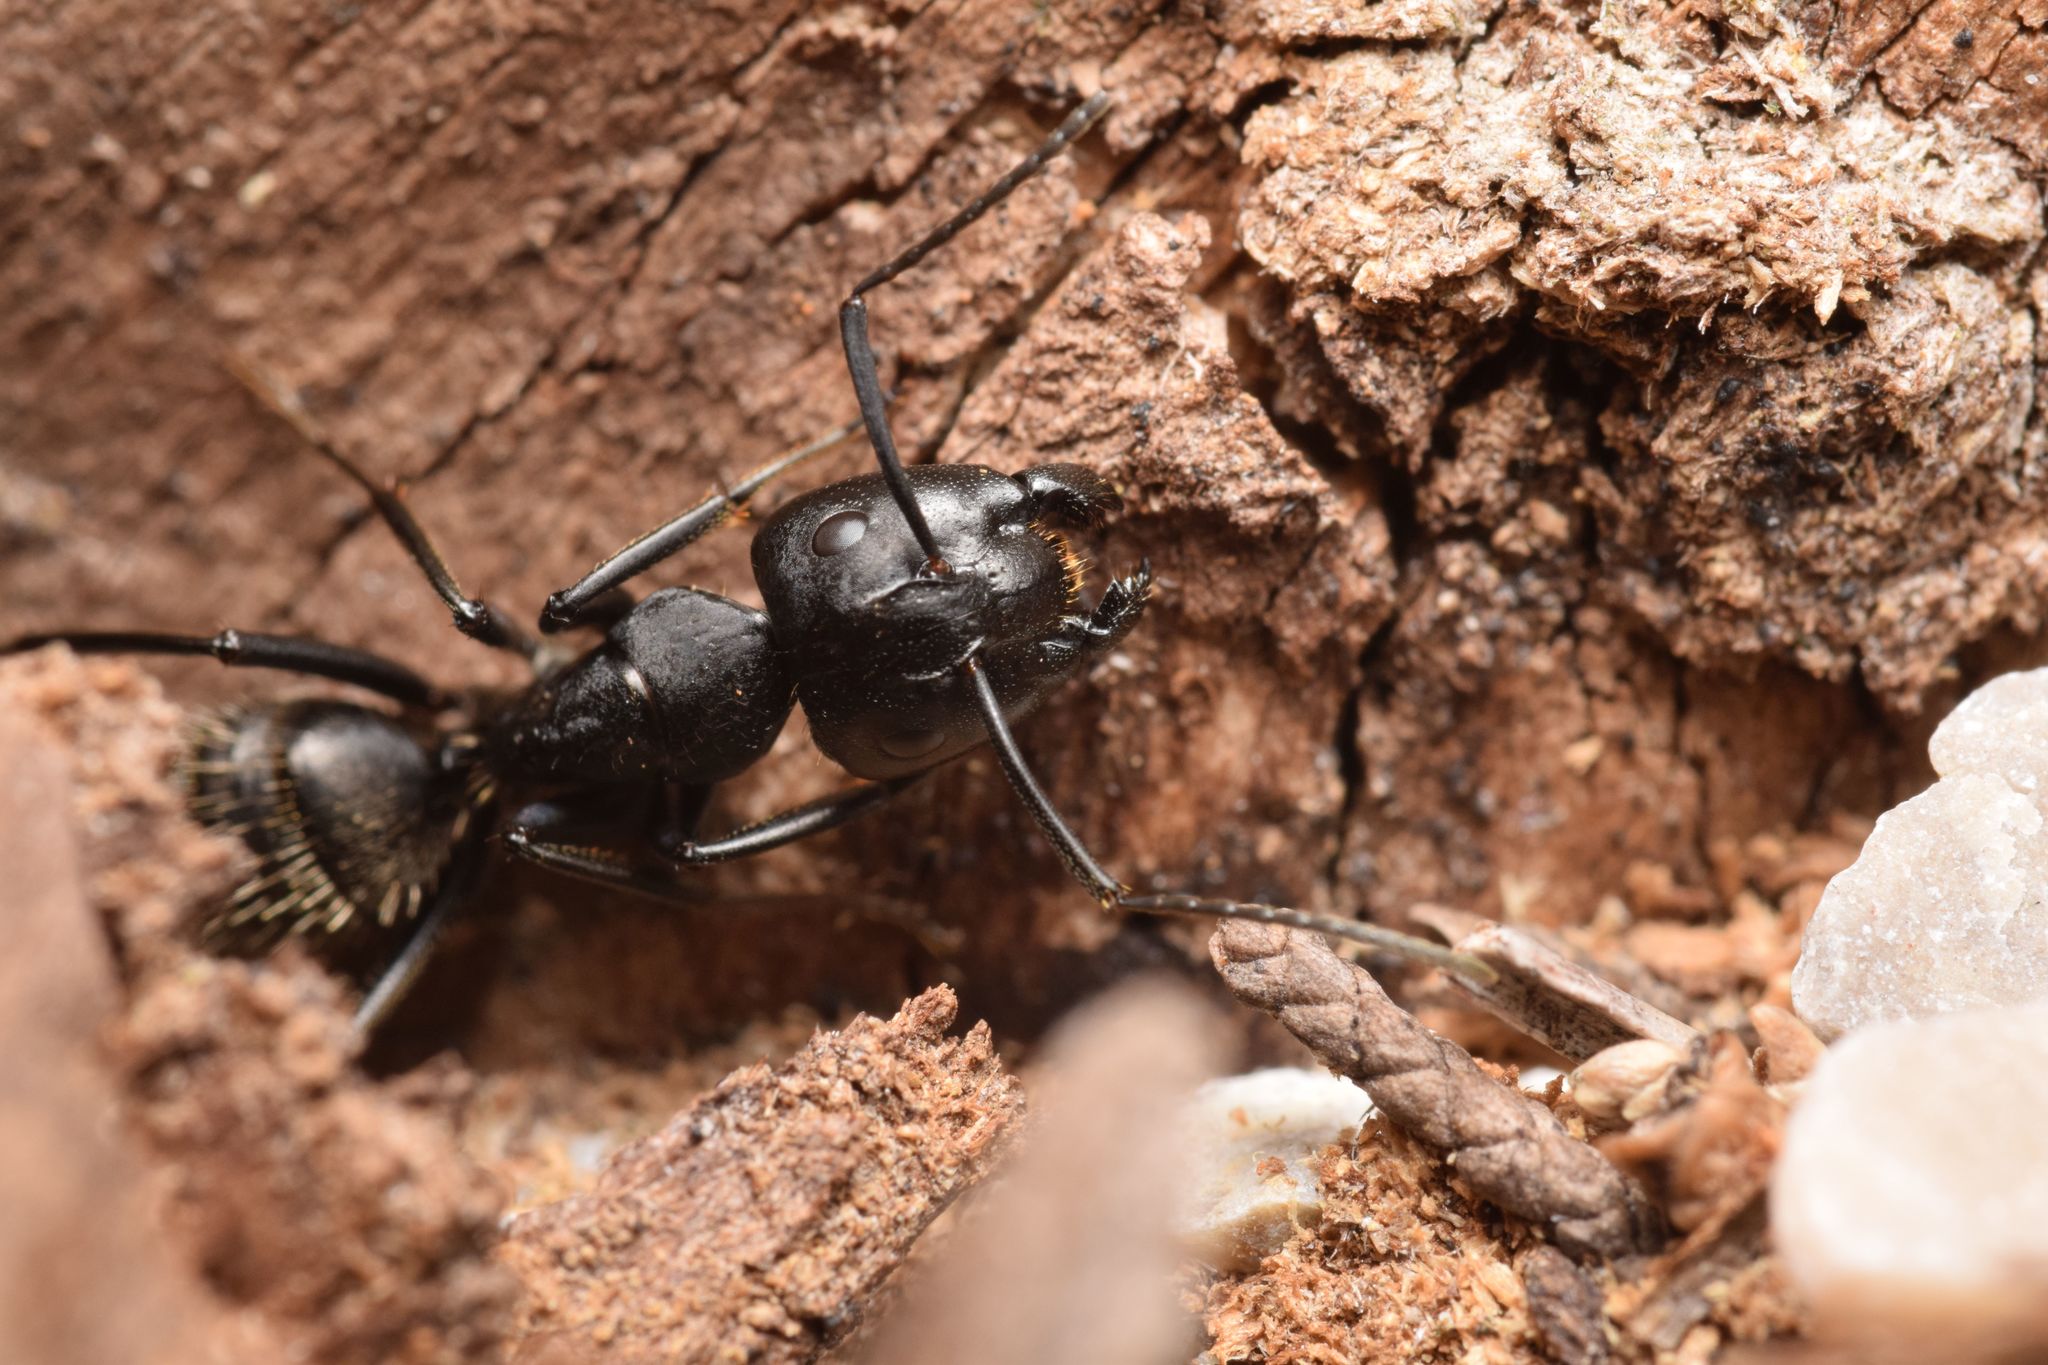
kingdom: Animalia
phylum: Arthropoda
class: Insecta
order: Hymenoptera
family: Formicidae
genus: Camponotus
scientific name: Camponotus vagus
